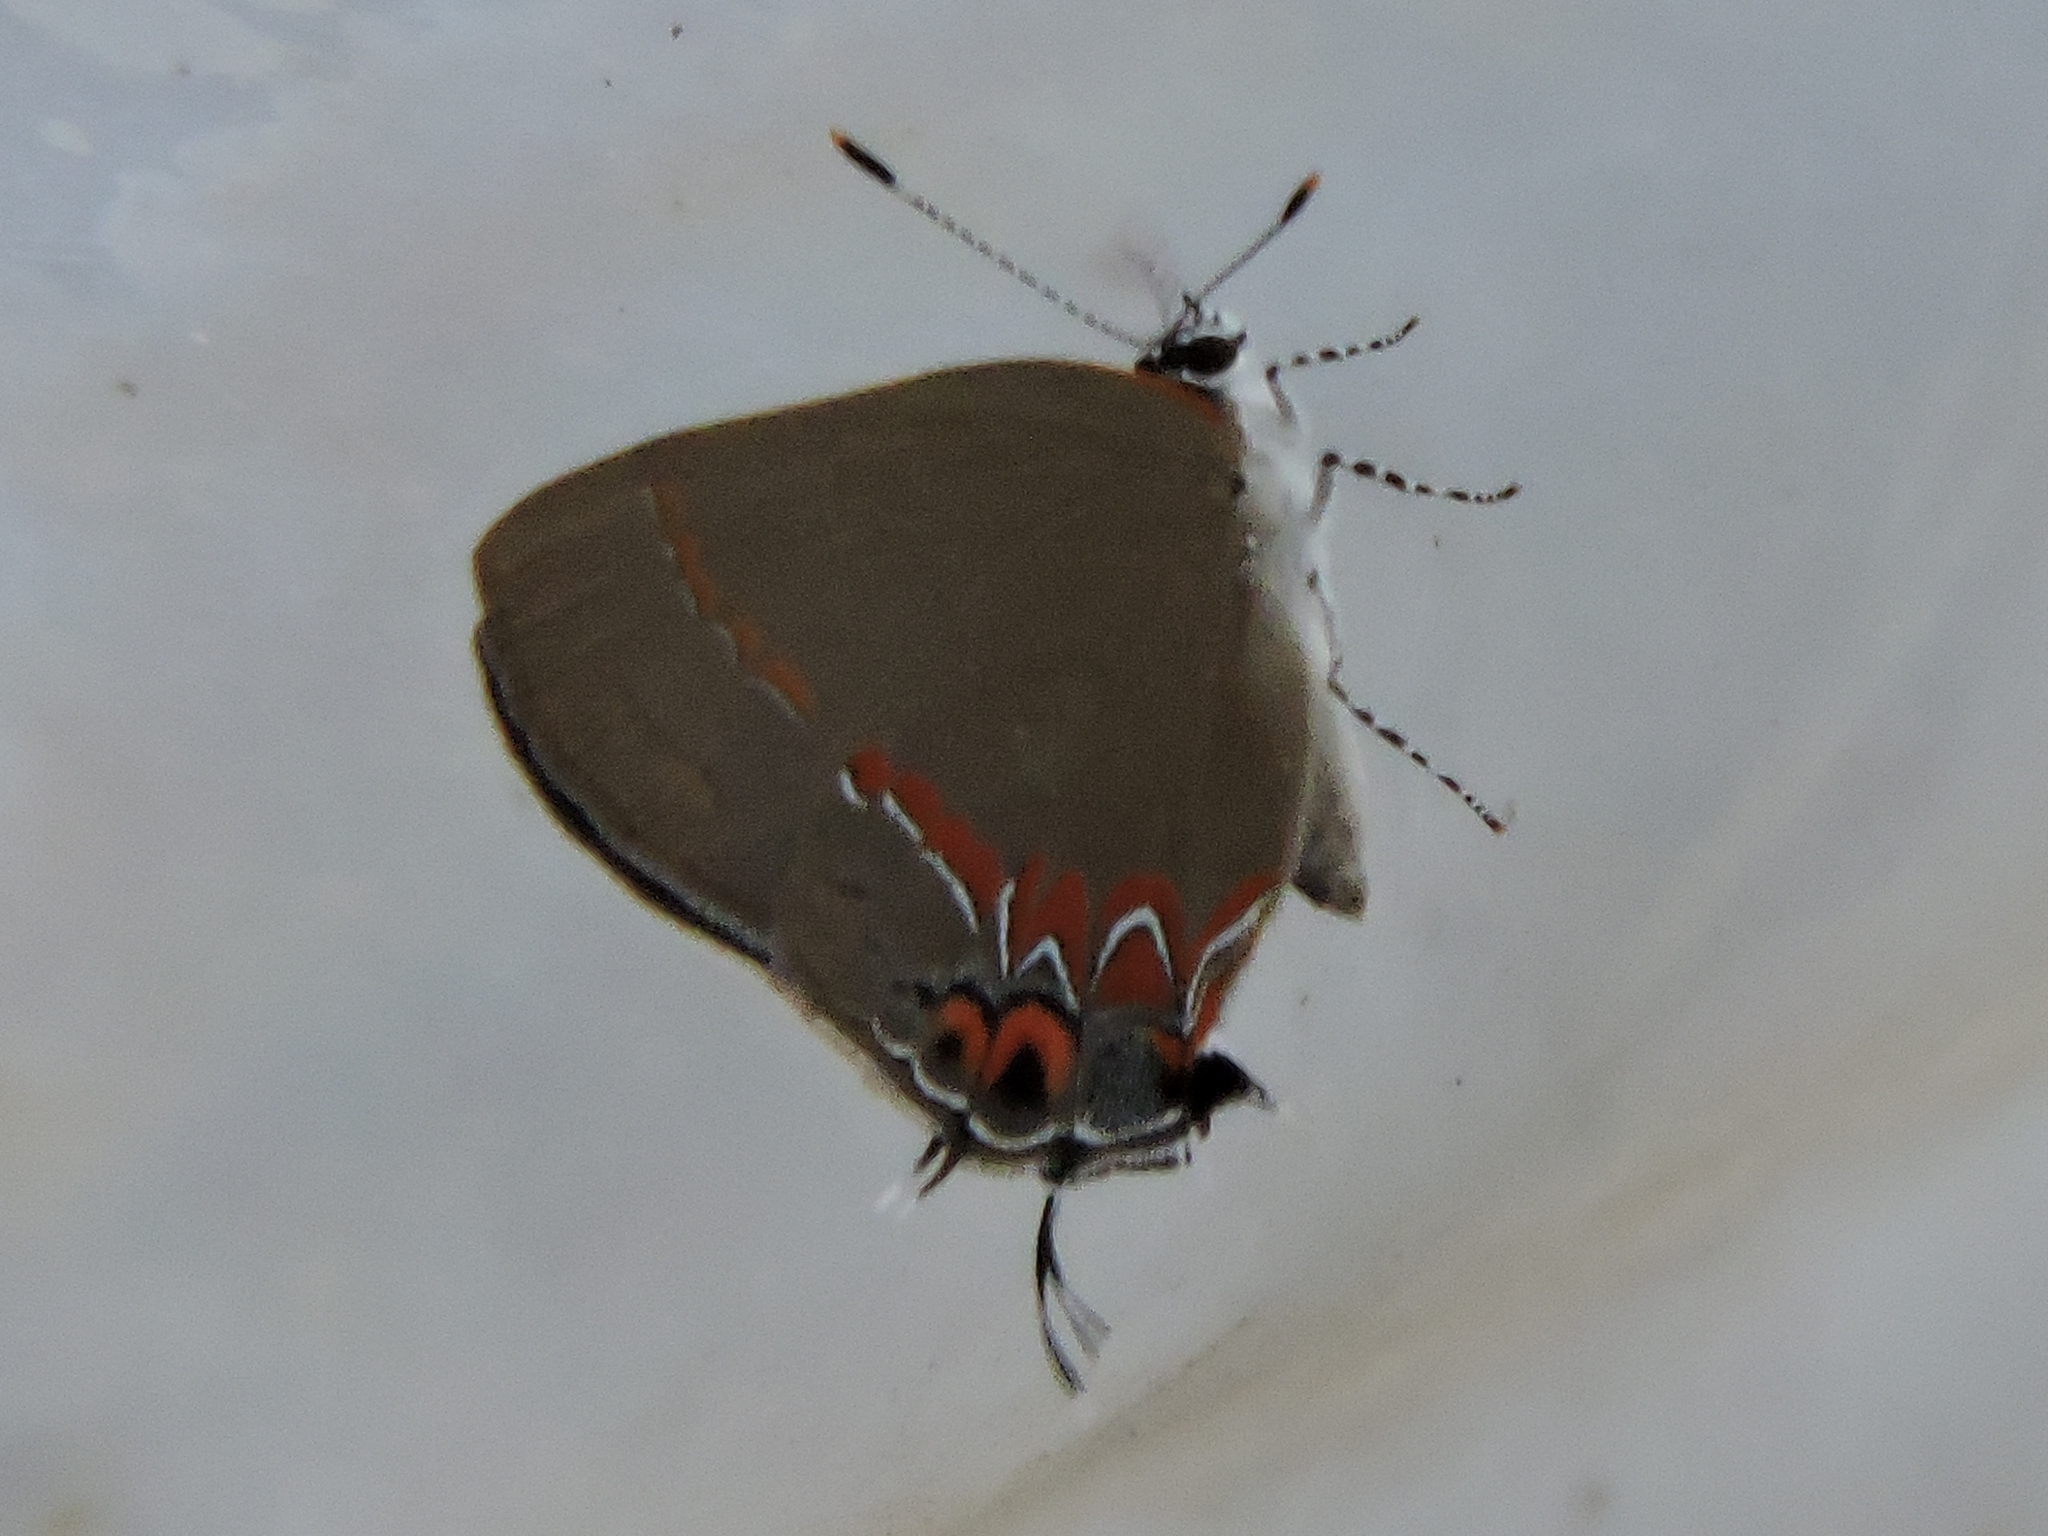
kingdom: Animalia
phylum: Arthropoda
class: Insecta
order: Lepidoptera
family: Lycaenidae
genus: Calycopis
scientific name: Calycopis cecrops
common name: Red-banded hairstreak
